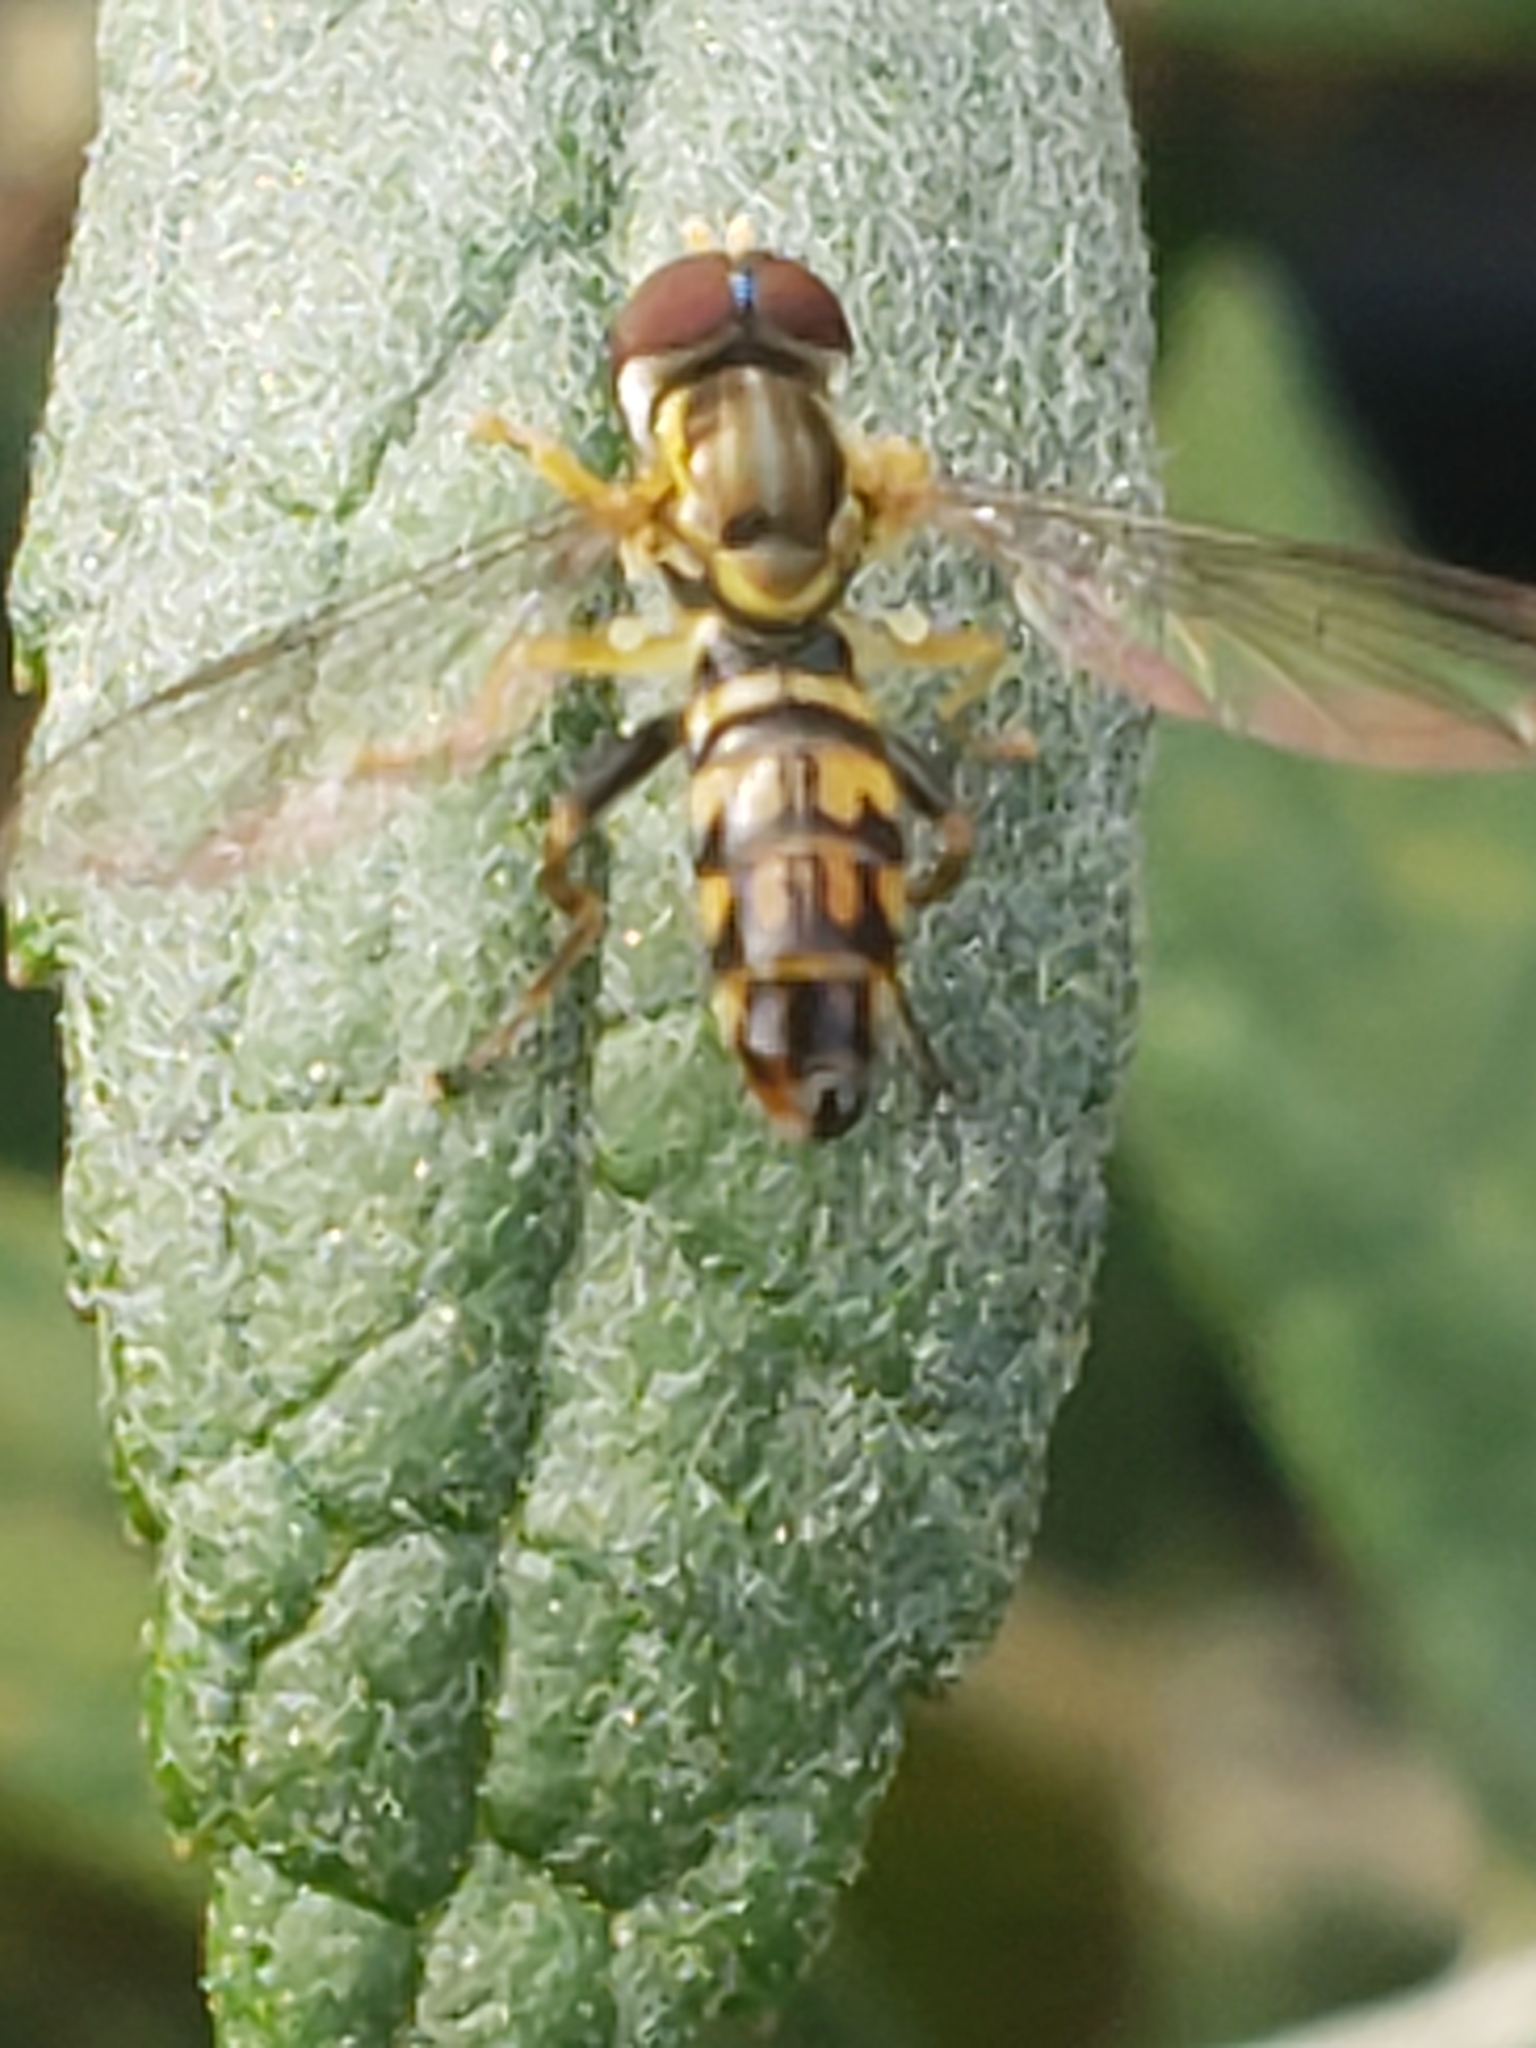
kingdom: Animalia
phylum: Arthropoda
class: Insecta
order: Diptera
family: Syrphidae
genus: Toxomerus
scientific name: Toxomerus geminatus
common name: Eastern calligrapher
